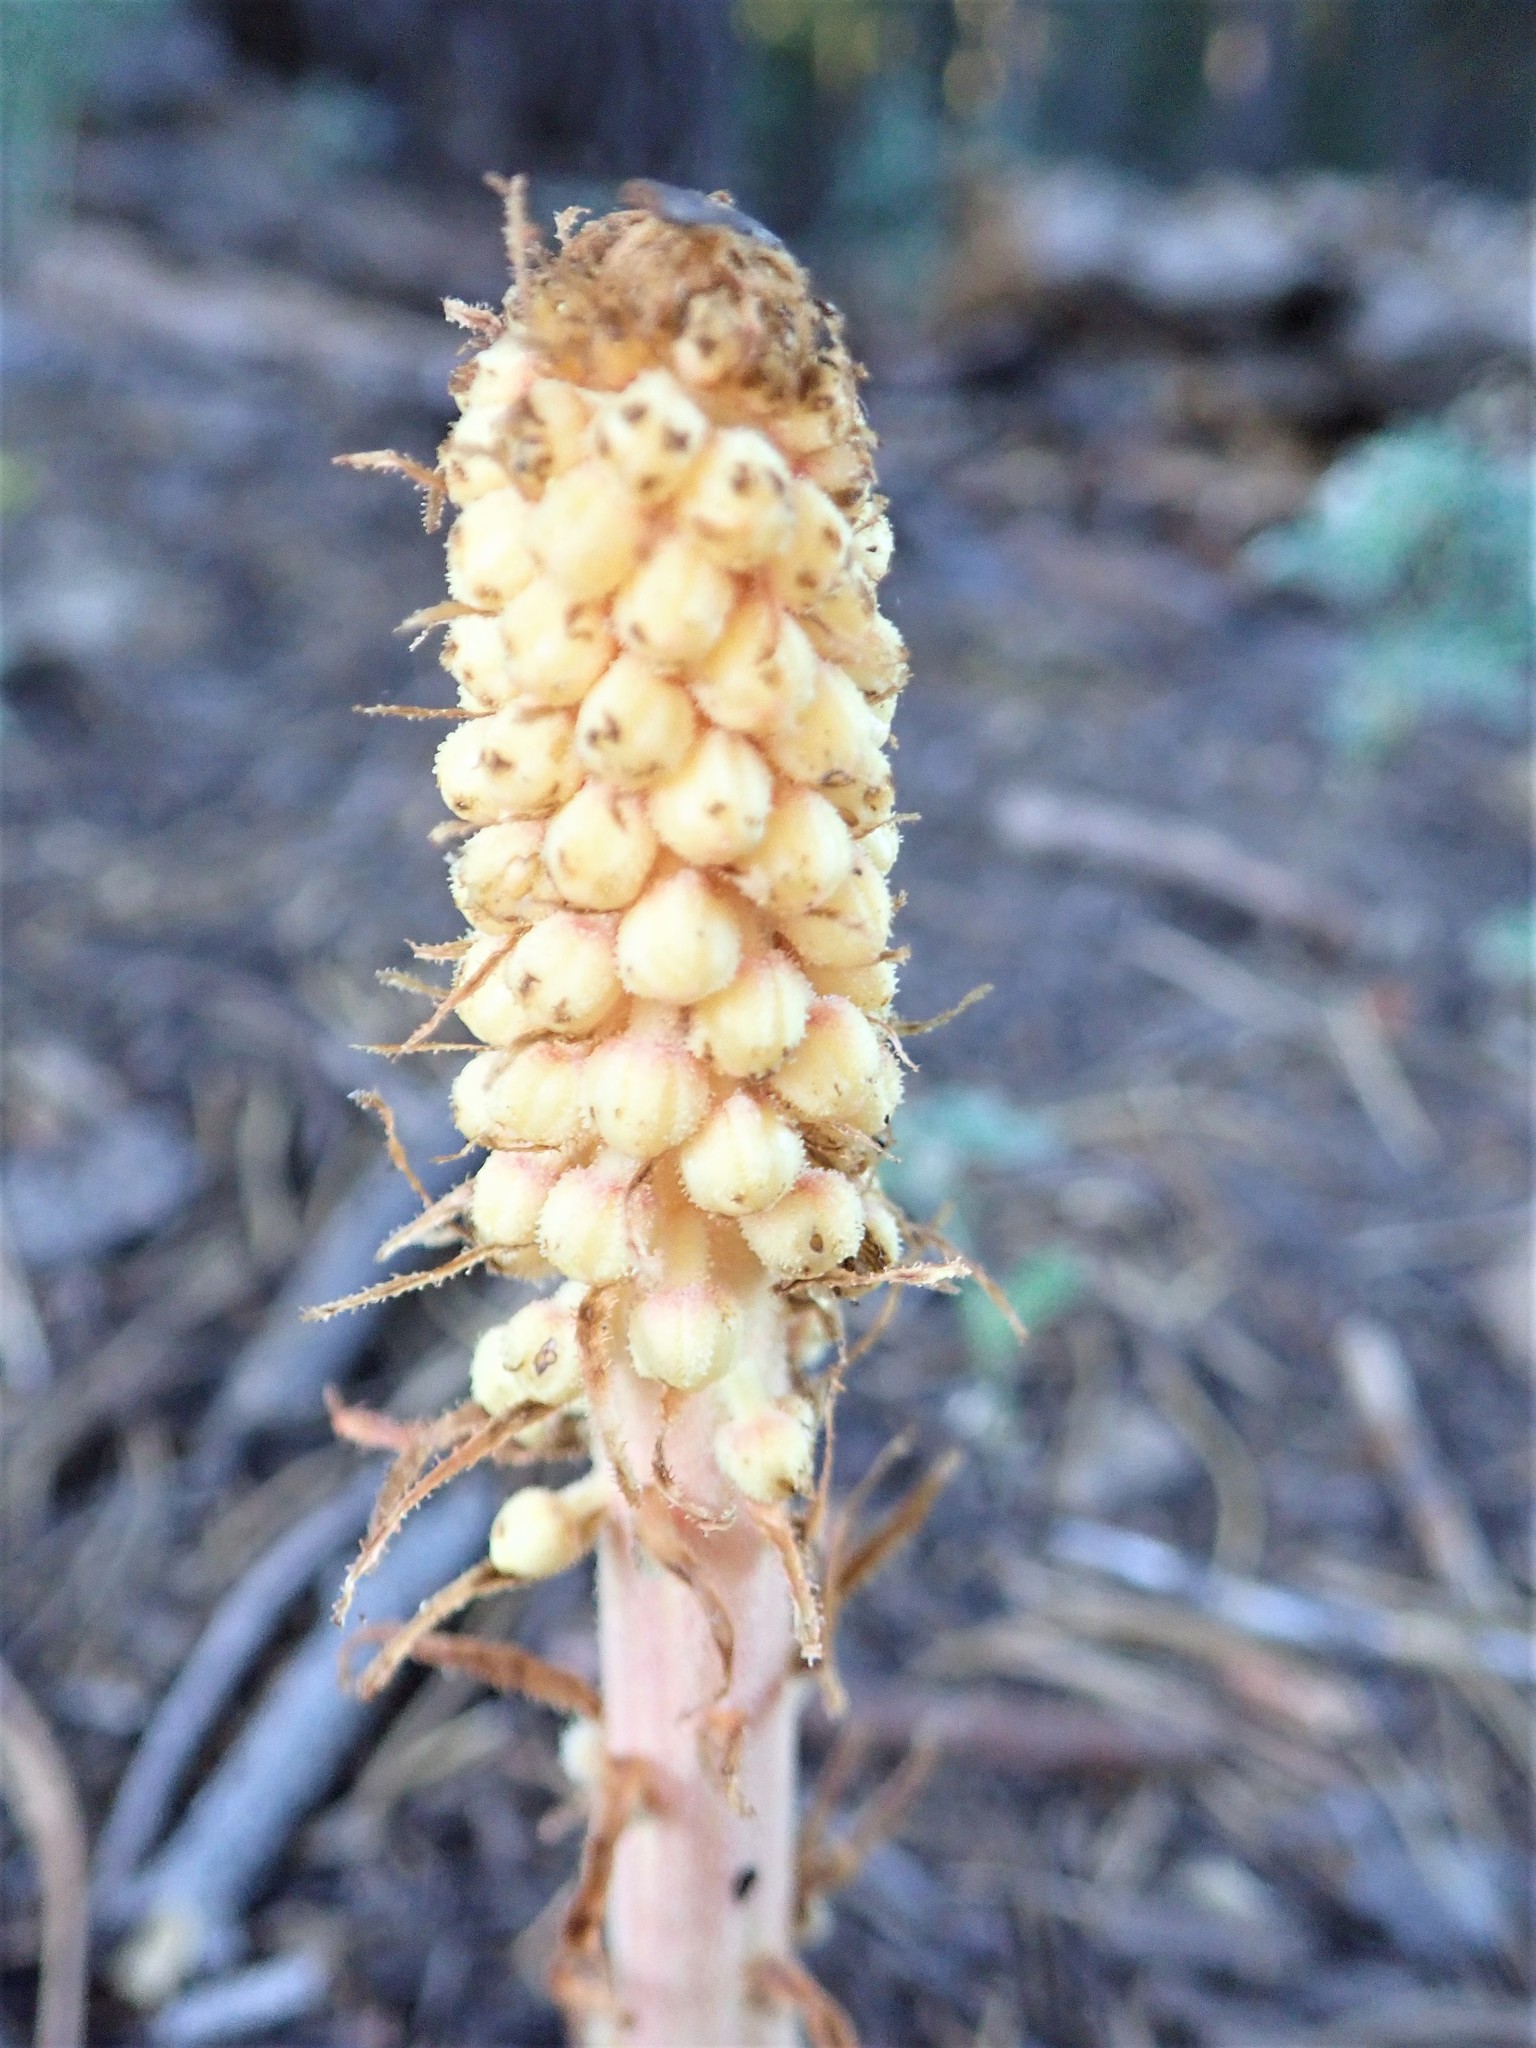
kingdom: Plantae
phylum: Tracheophyta
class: Magnoliopsida
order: Ericales
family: Ericaceae
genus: Pterospora
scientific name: Pterospora andromedea
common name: Giant bird's-nest
